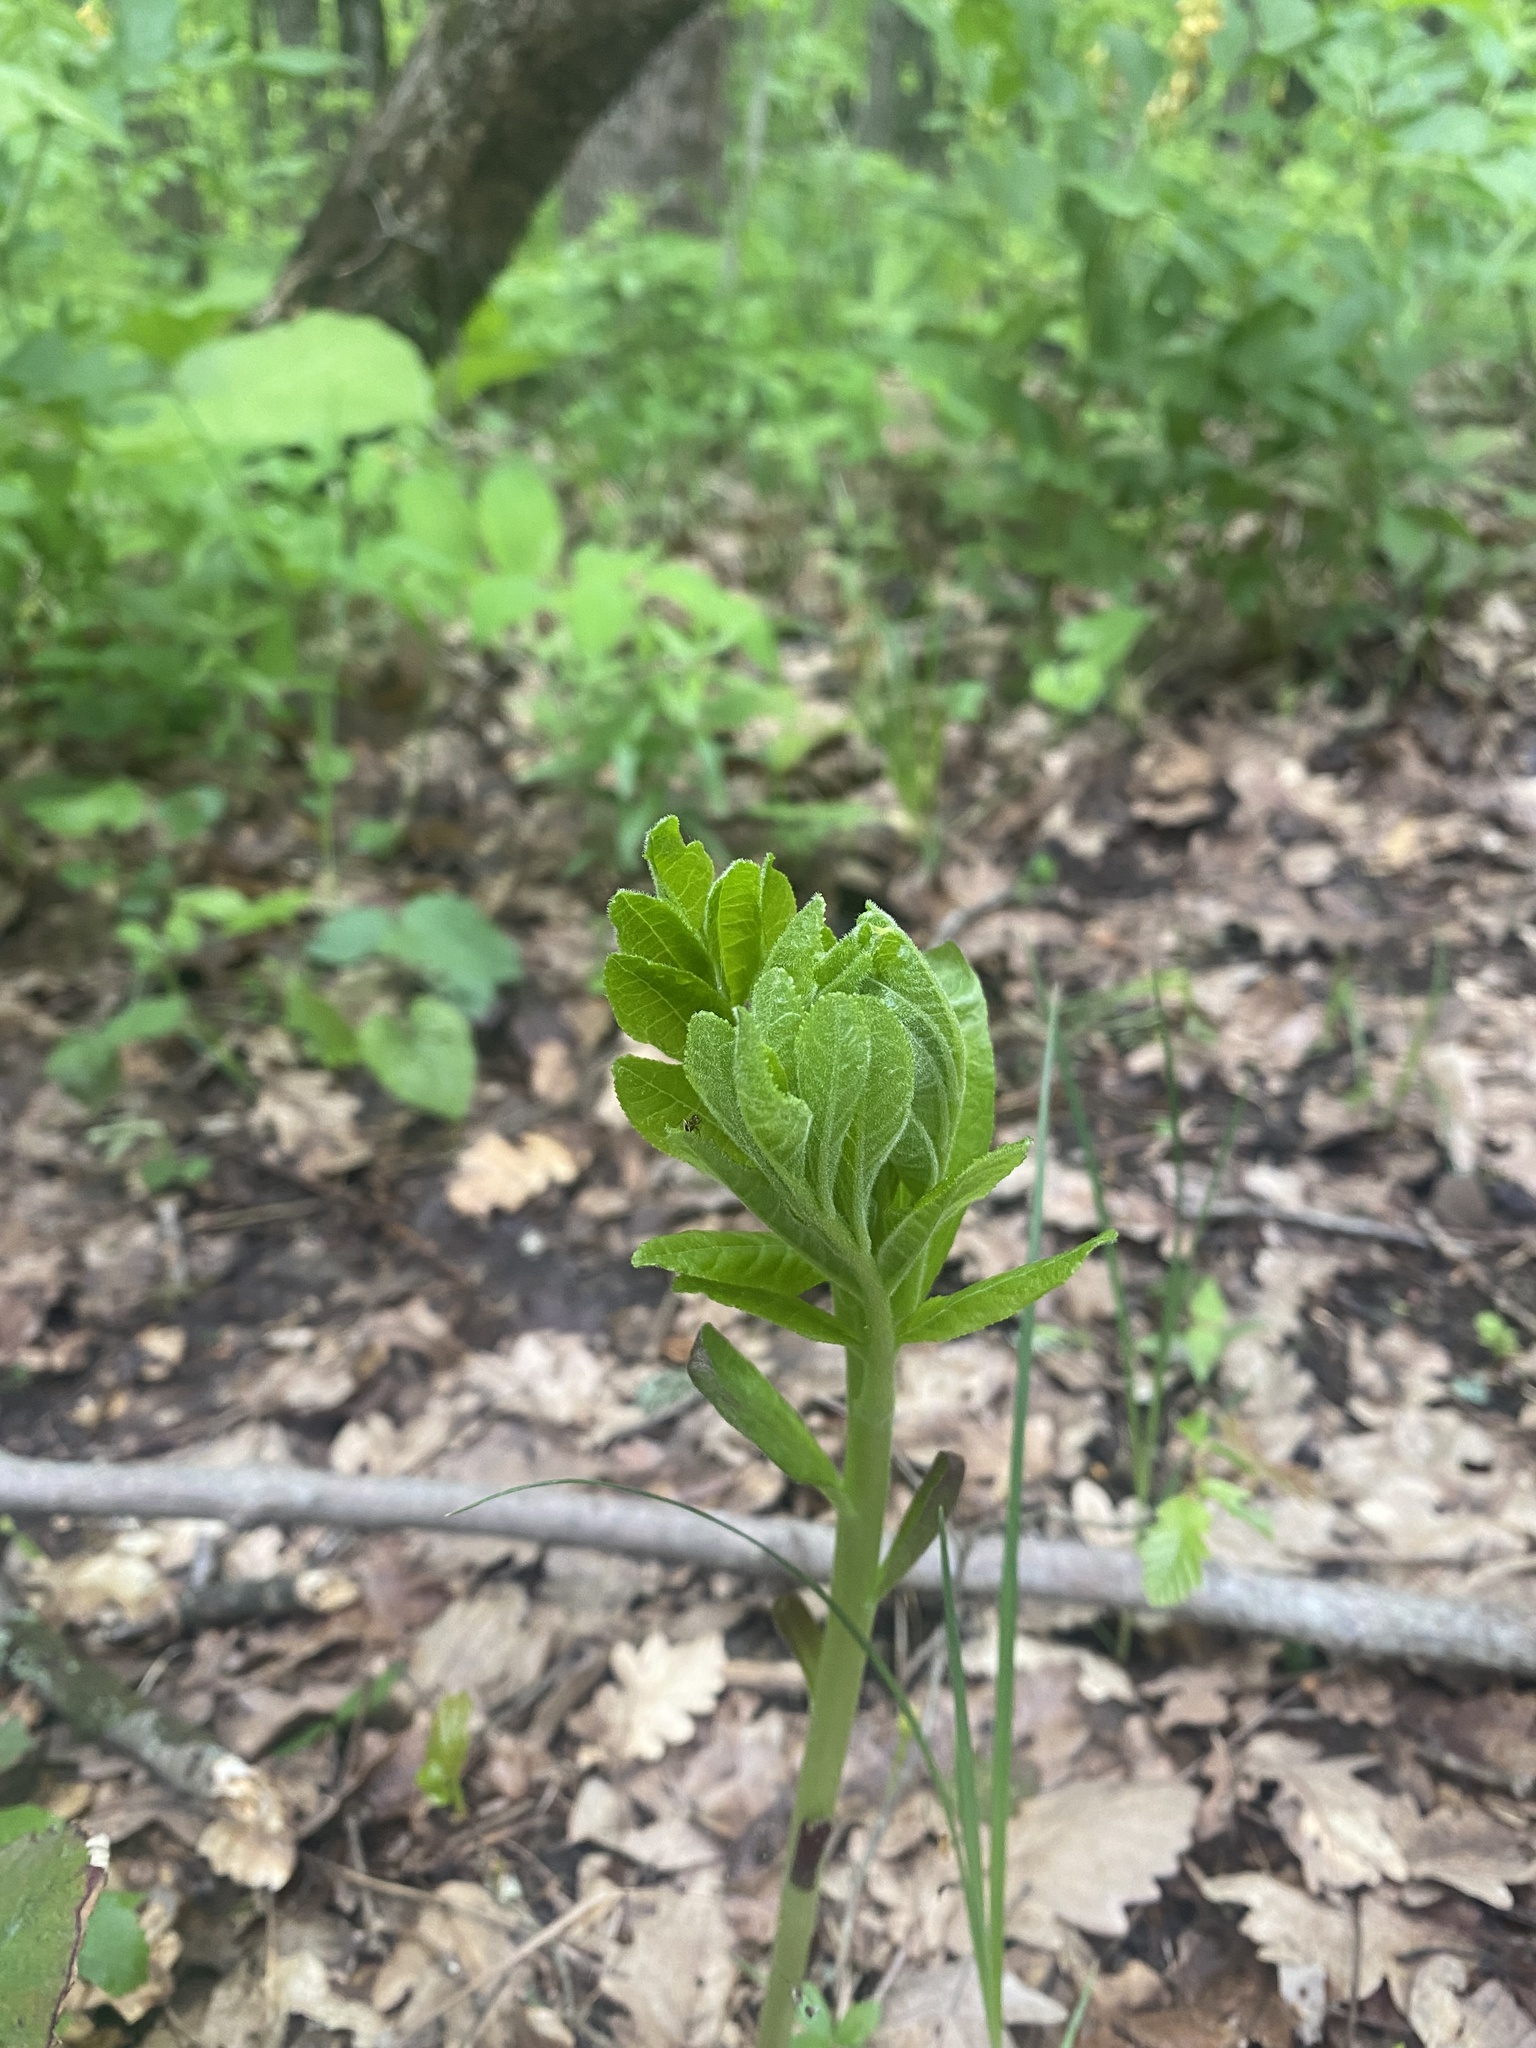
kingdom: Plantae
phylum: Tracheophyta
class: Magnoliopsida
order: Sapindales
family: Rutaceae
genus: Dictamnus
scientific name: Dictamnus albus
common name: Gasplant
